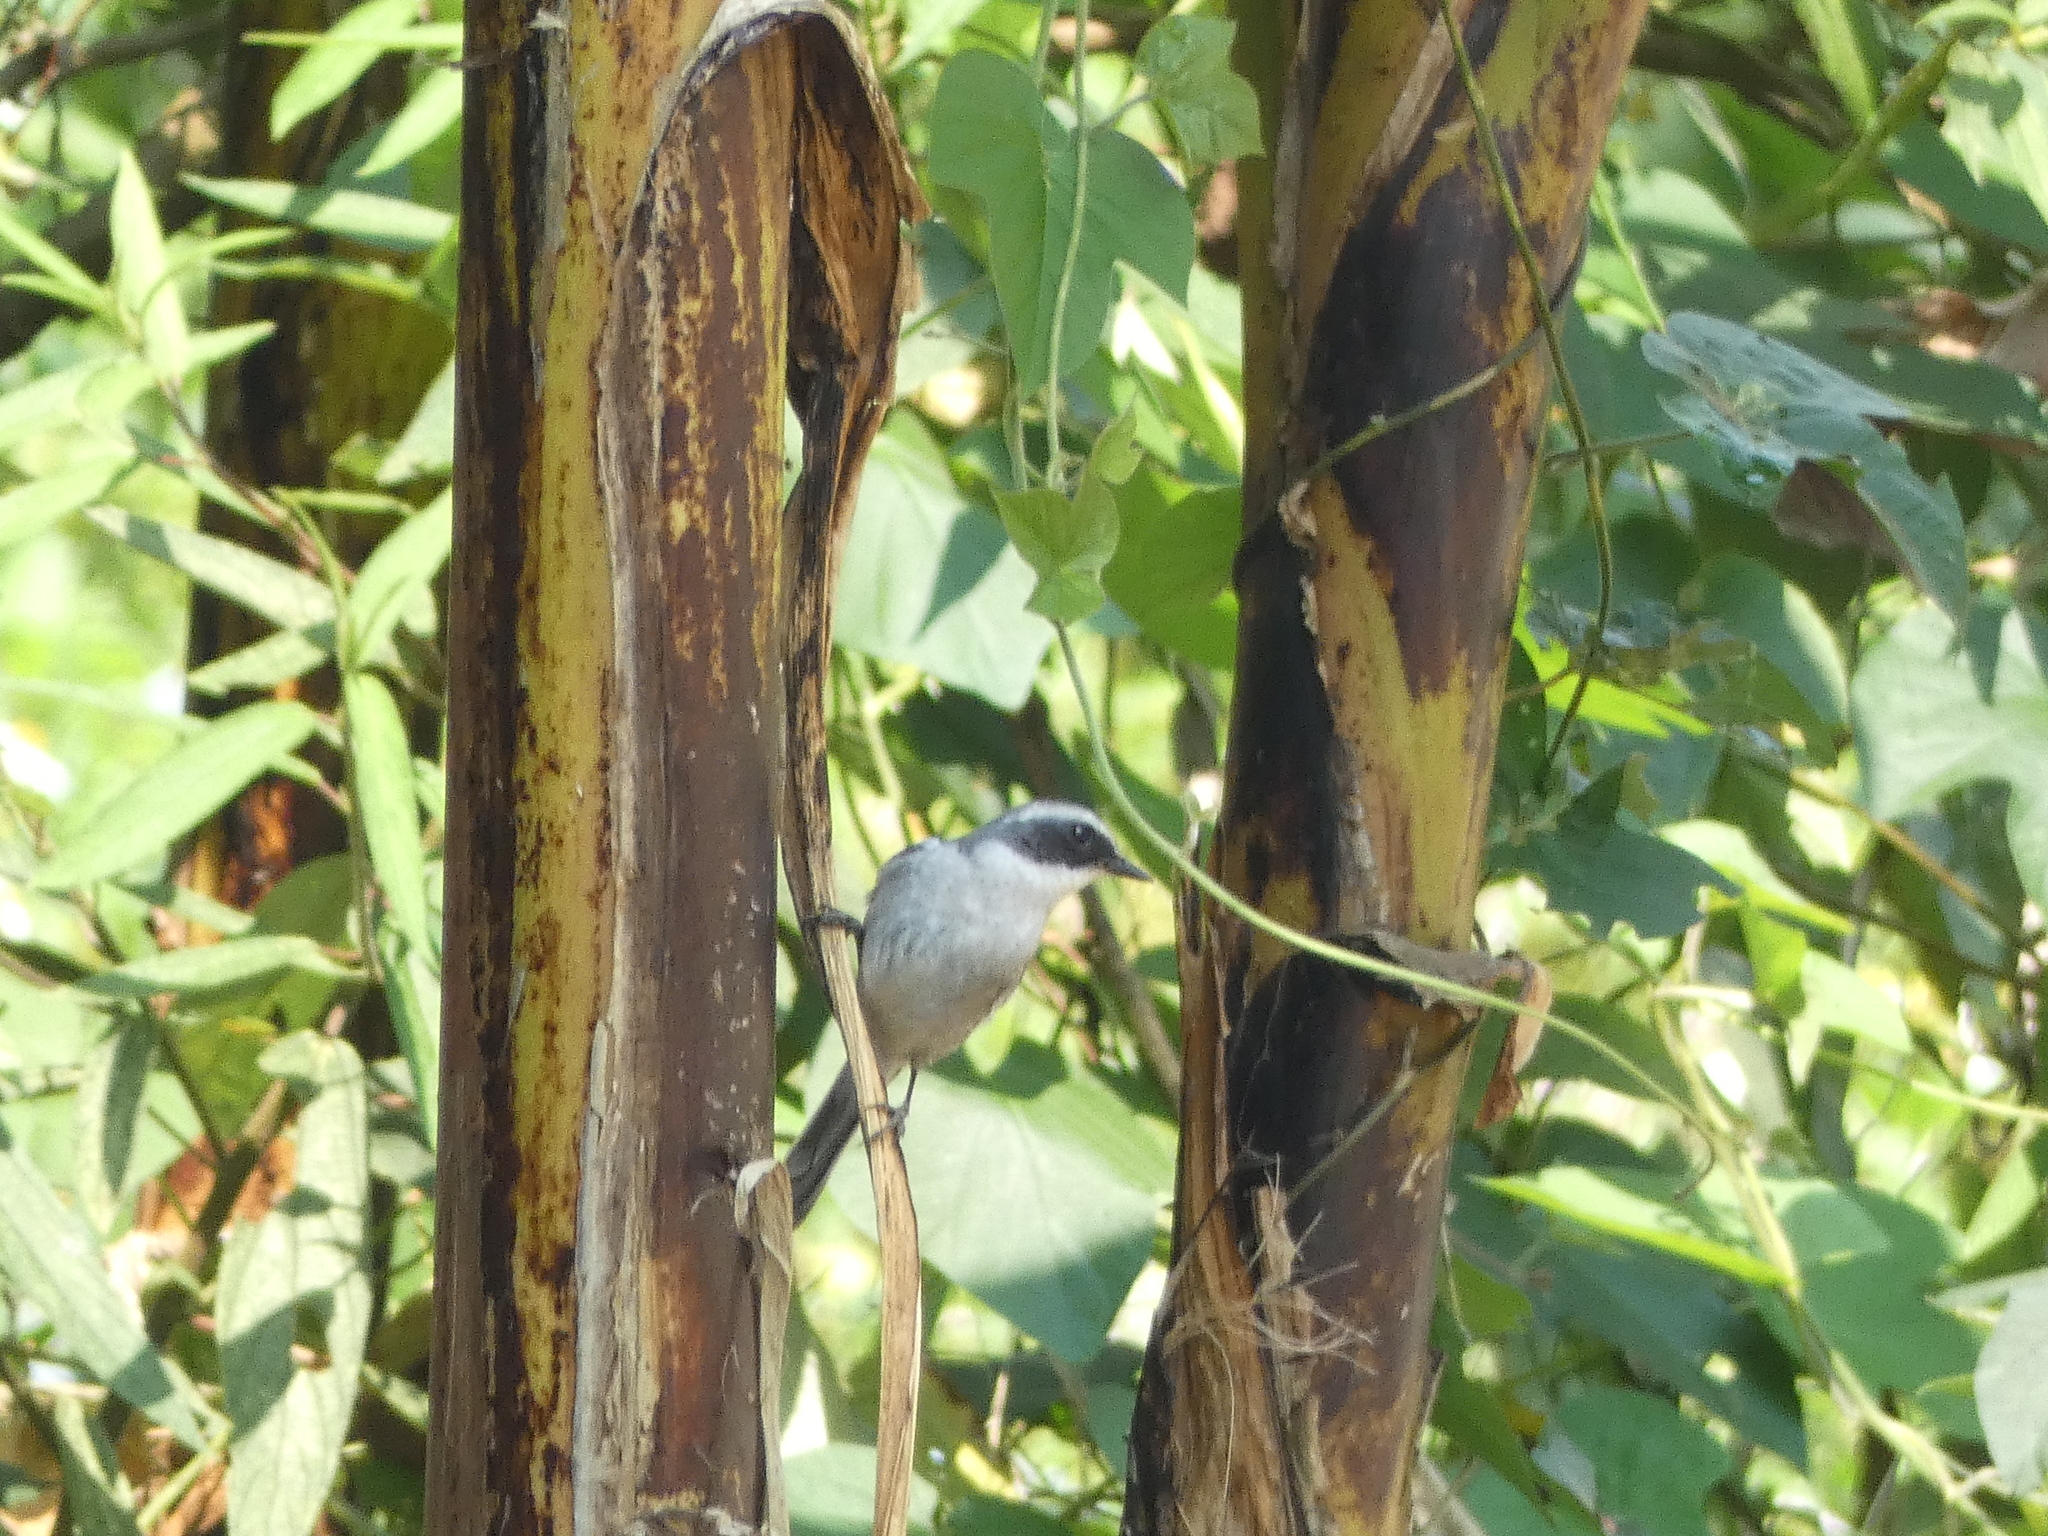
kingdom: Animalia
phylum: Chordata
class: Aves
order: Passeriformes
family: Muscicapidae
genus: Saxicola
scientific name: Saxicola ferreus
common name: Grey bush chat
